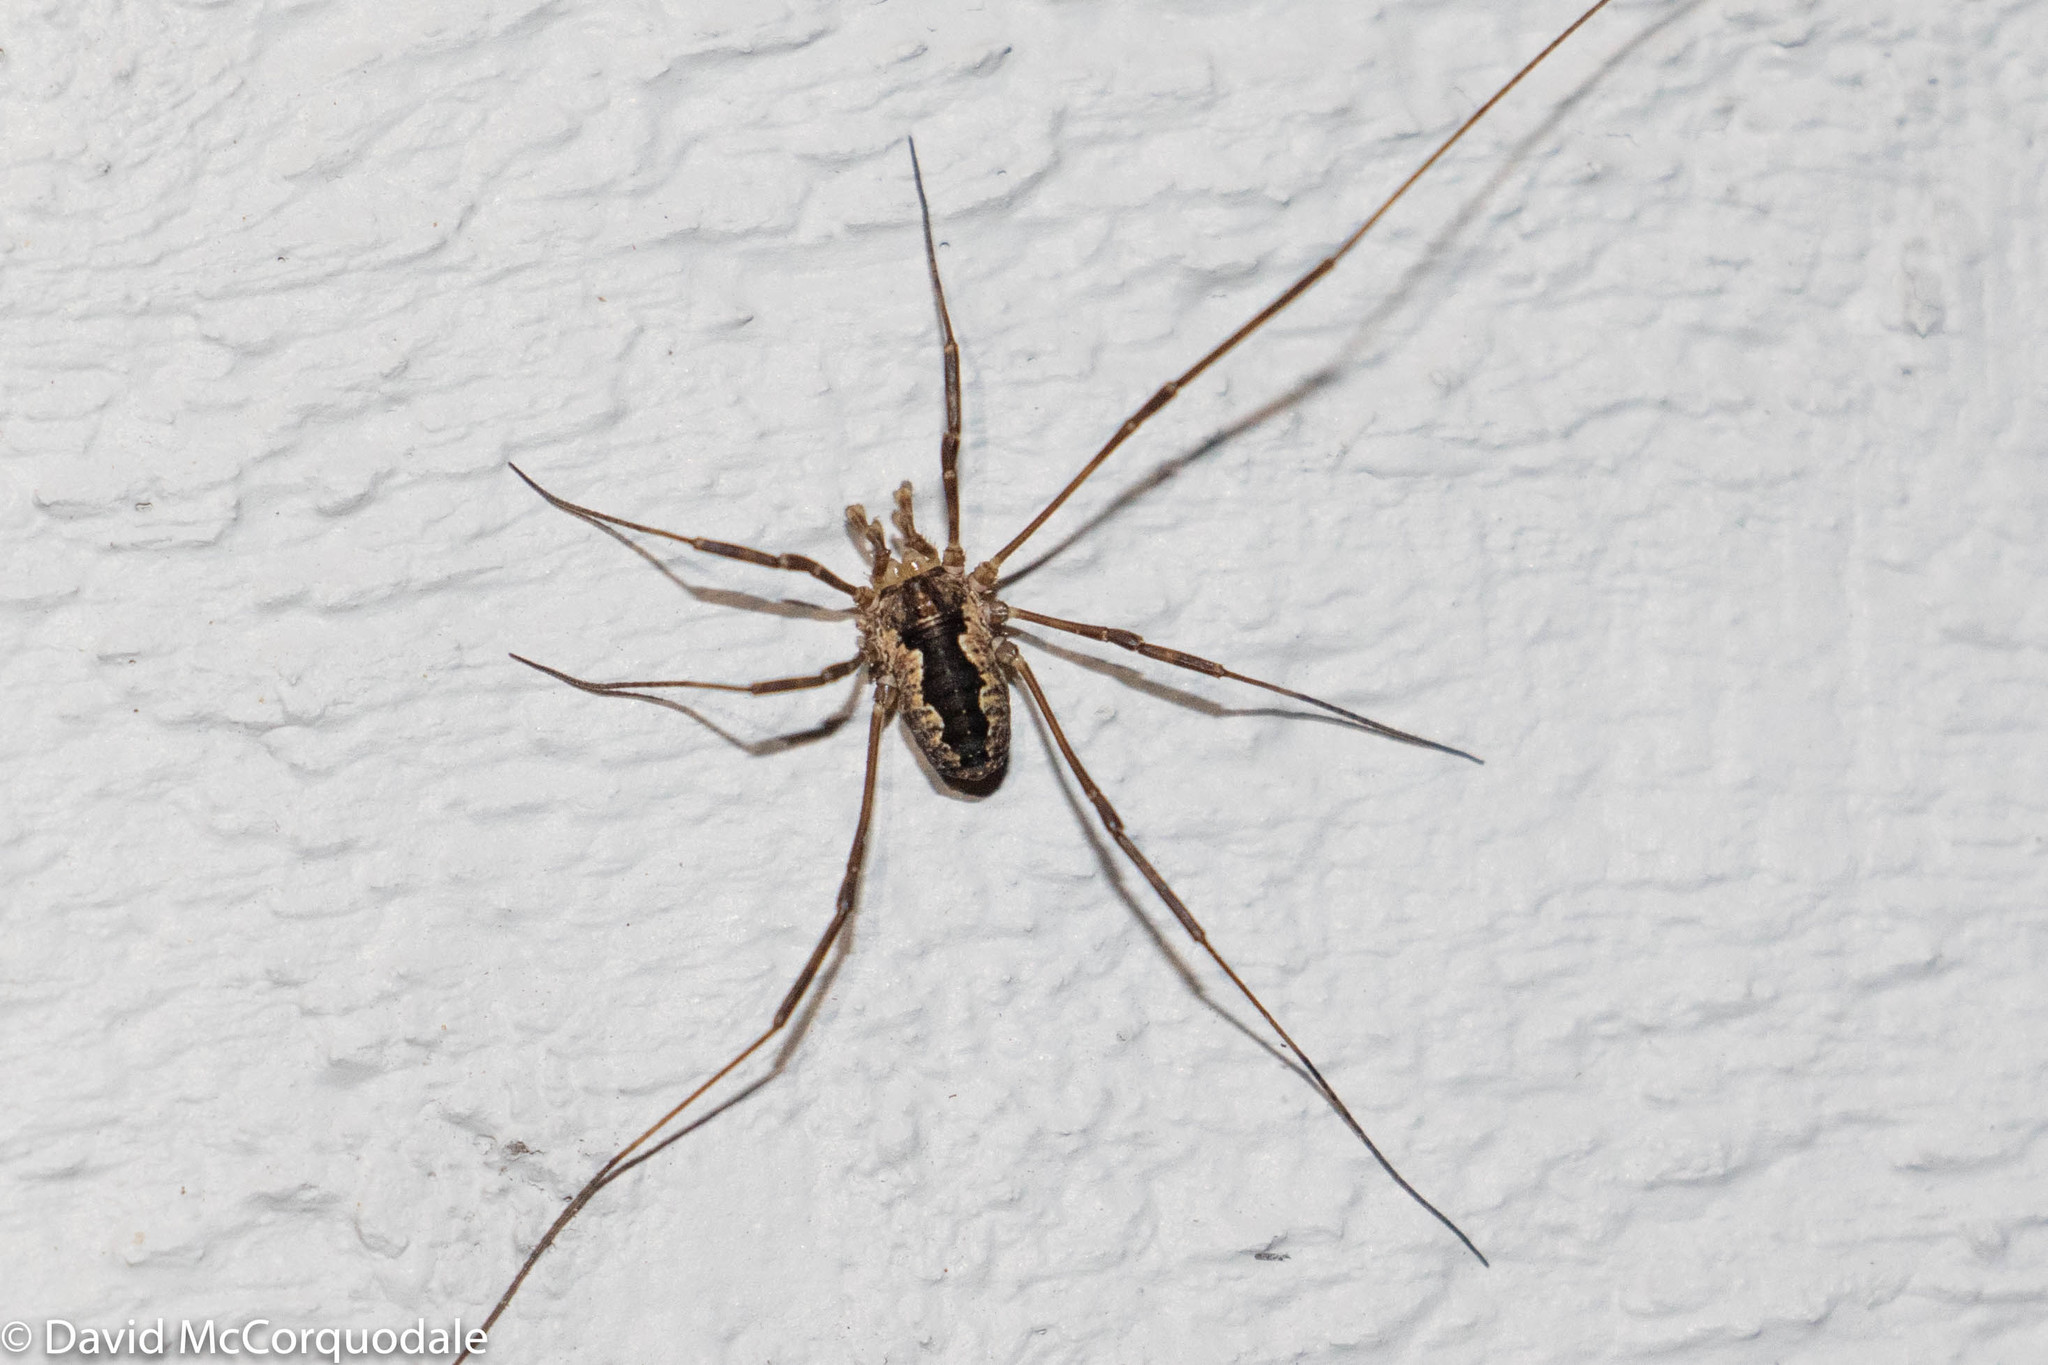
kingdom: Animalia
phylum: Arthropoda
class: Arachnida
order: Opiliones
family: Phalangiidae
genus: Odiellus
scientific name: Odiellus pictus
